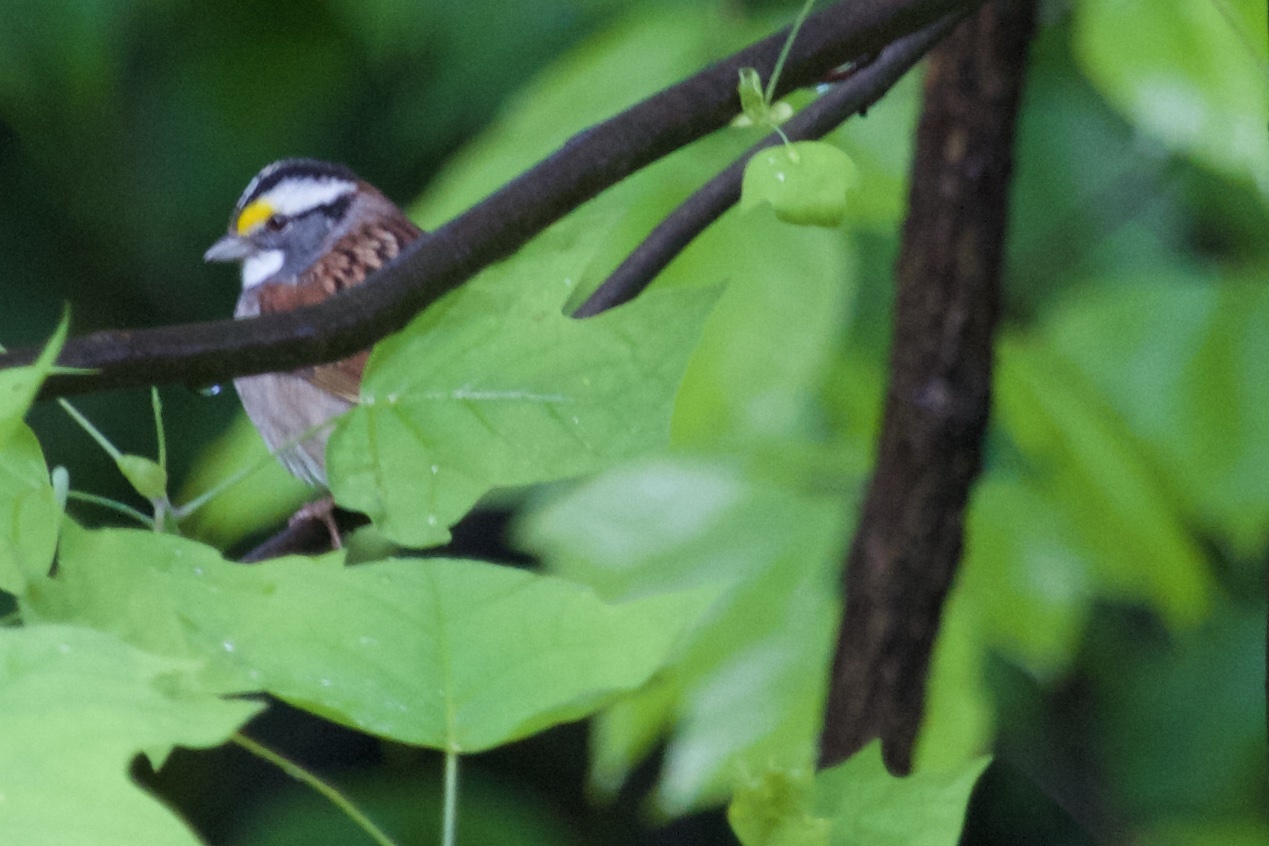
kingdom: Animalia
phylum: Chordata
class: Aves
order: Passeriformes
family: Passerellidae
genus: Zonotrichia
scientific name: Zonotrichia albicollis
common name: White-throated sparrow
